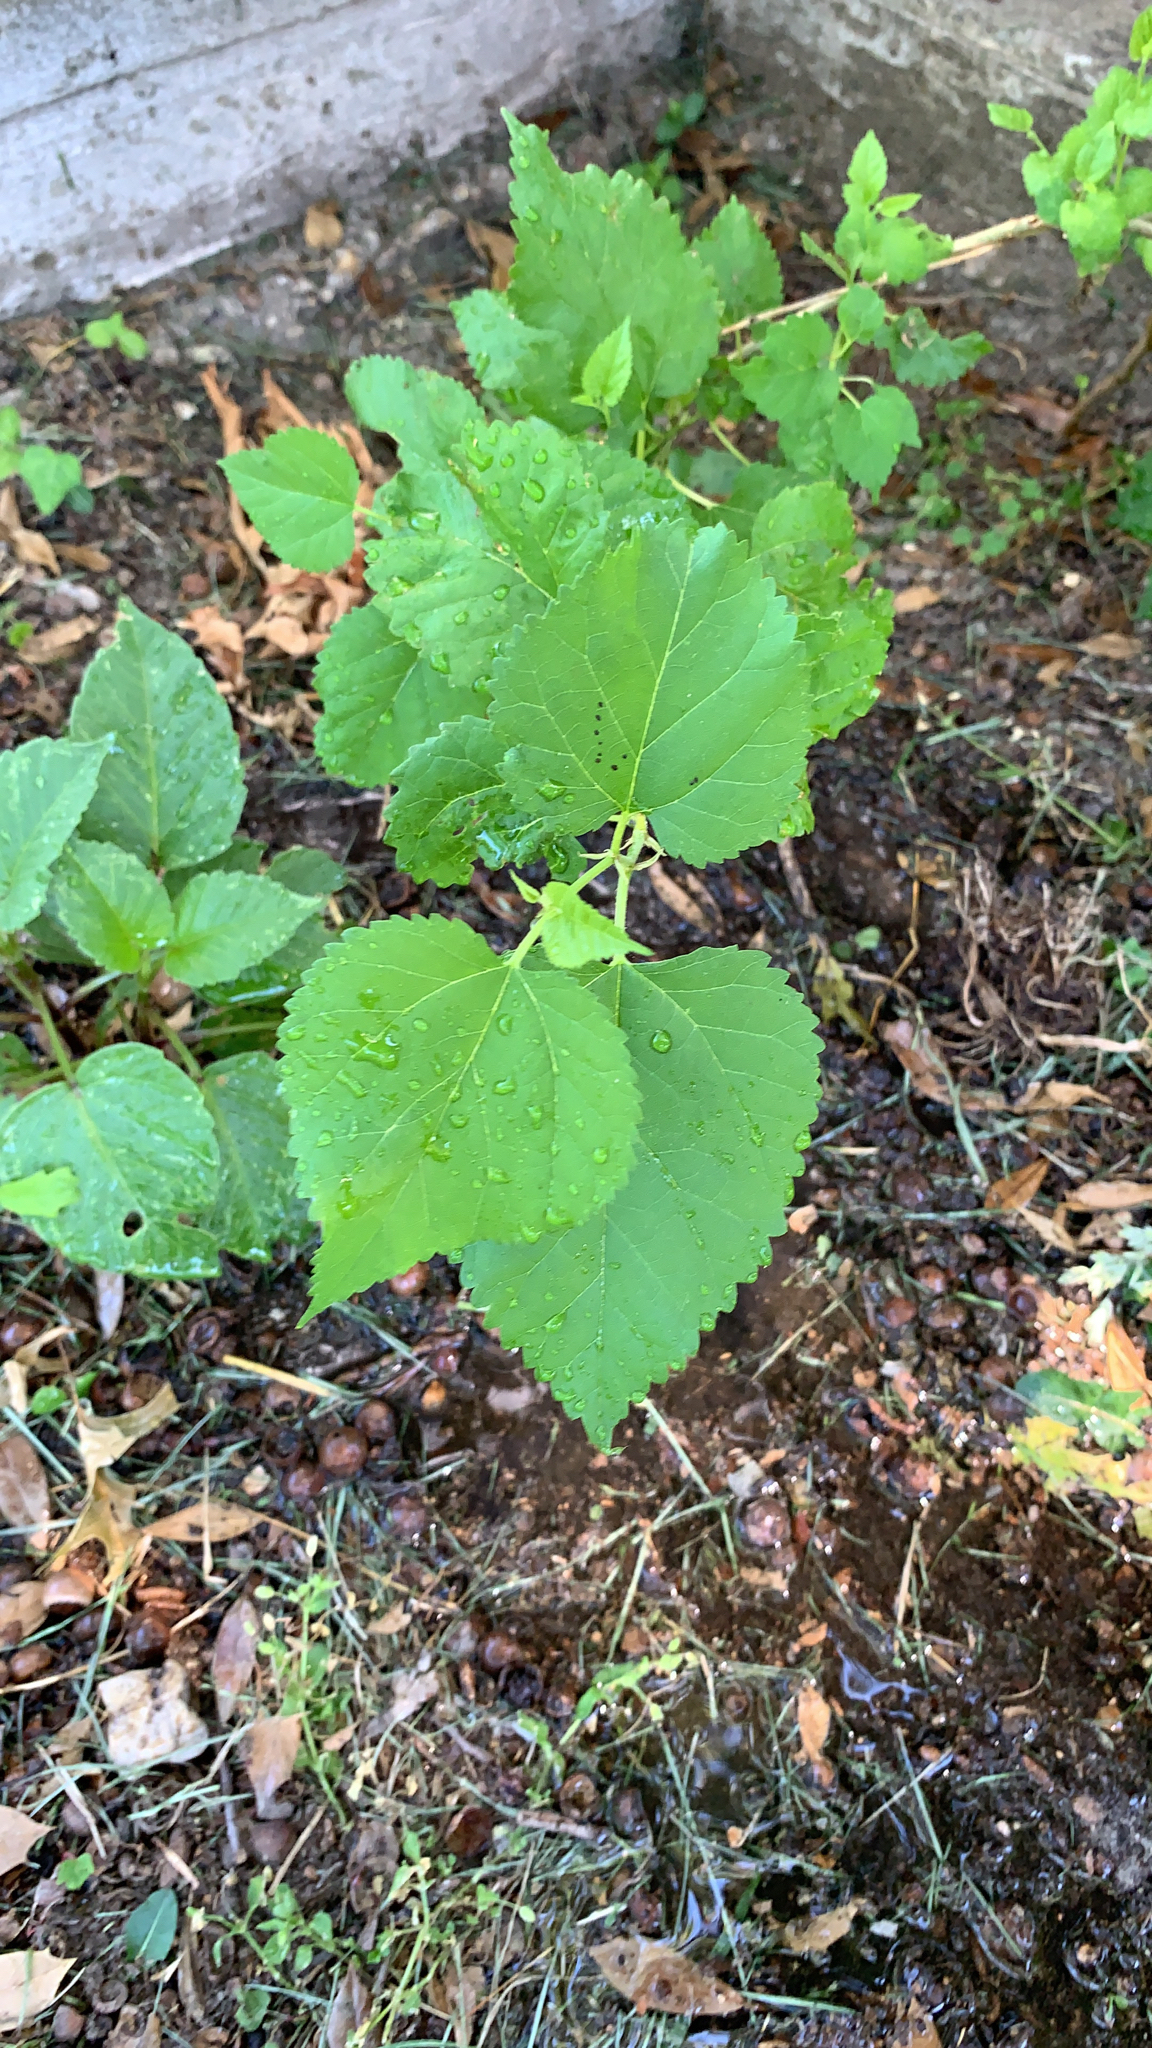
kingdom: Plantae
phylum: Tracheophyta
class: Magnoliopsida
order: Rosales
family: Moraceae
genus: Morus
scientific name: Morus
